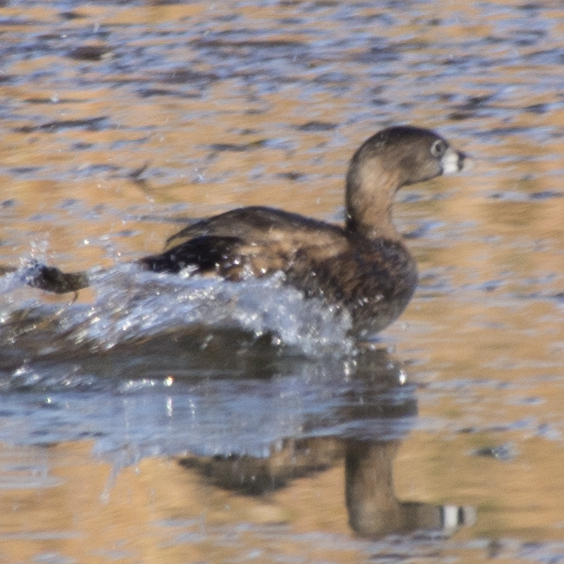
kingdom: Animalia
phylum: Chordata
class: Aves
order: Podicipediformes
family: Podicipedidae
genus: Podilymbus
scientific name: Podilymbus podiceps
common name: Pied-billed grebe
